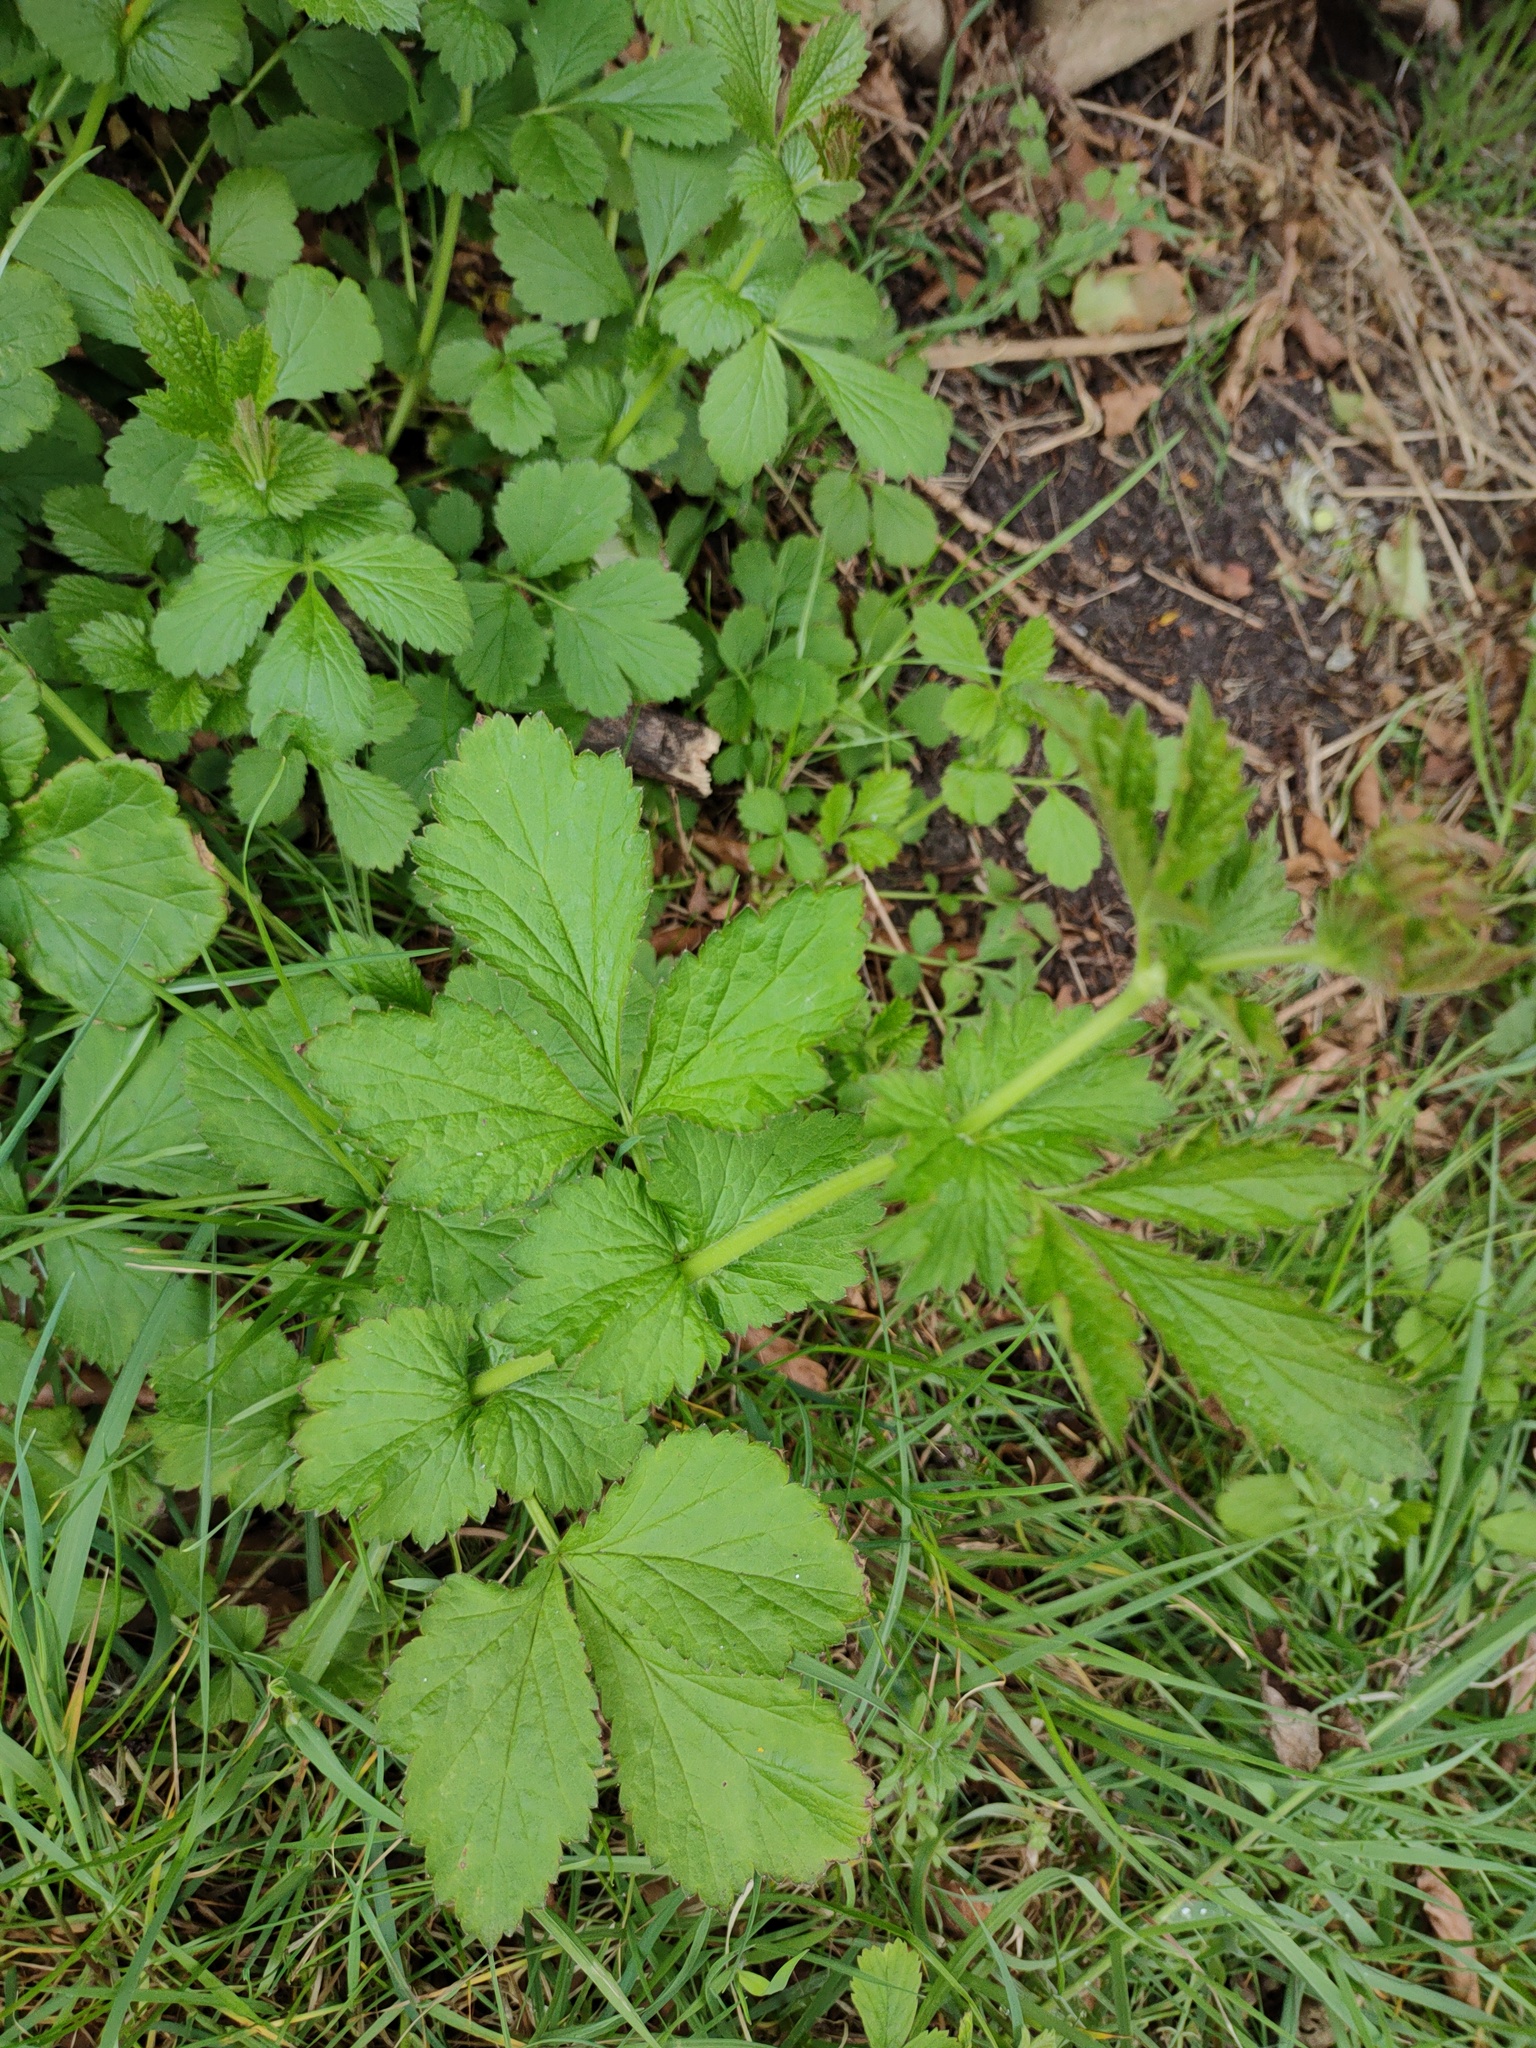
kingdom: Plantae
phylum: Tracheophyta
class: Magnoliopsida
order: Rosales
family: Rosaceae
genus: Geum
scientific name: Geum urbanum
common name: Wood avens
